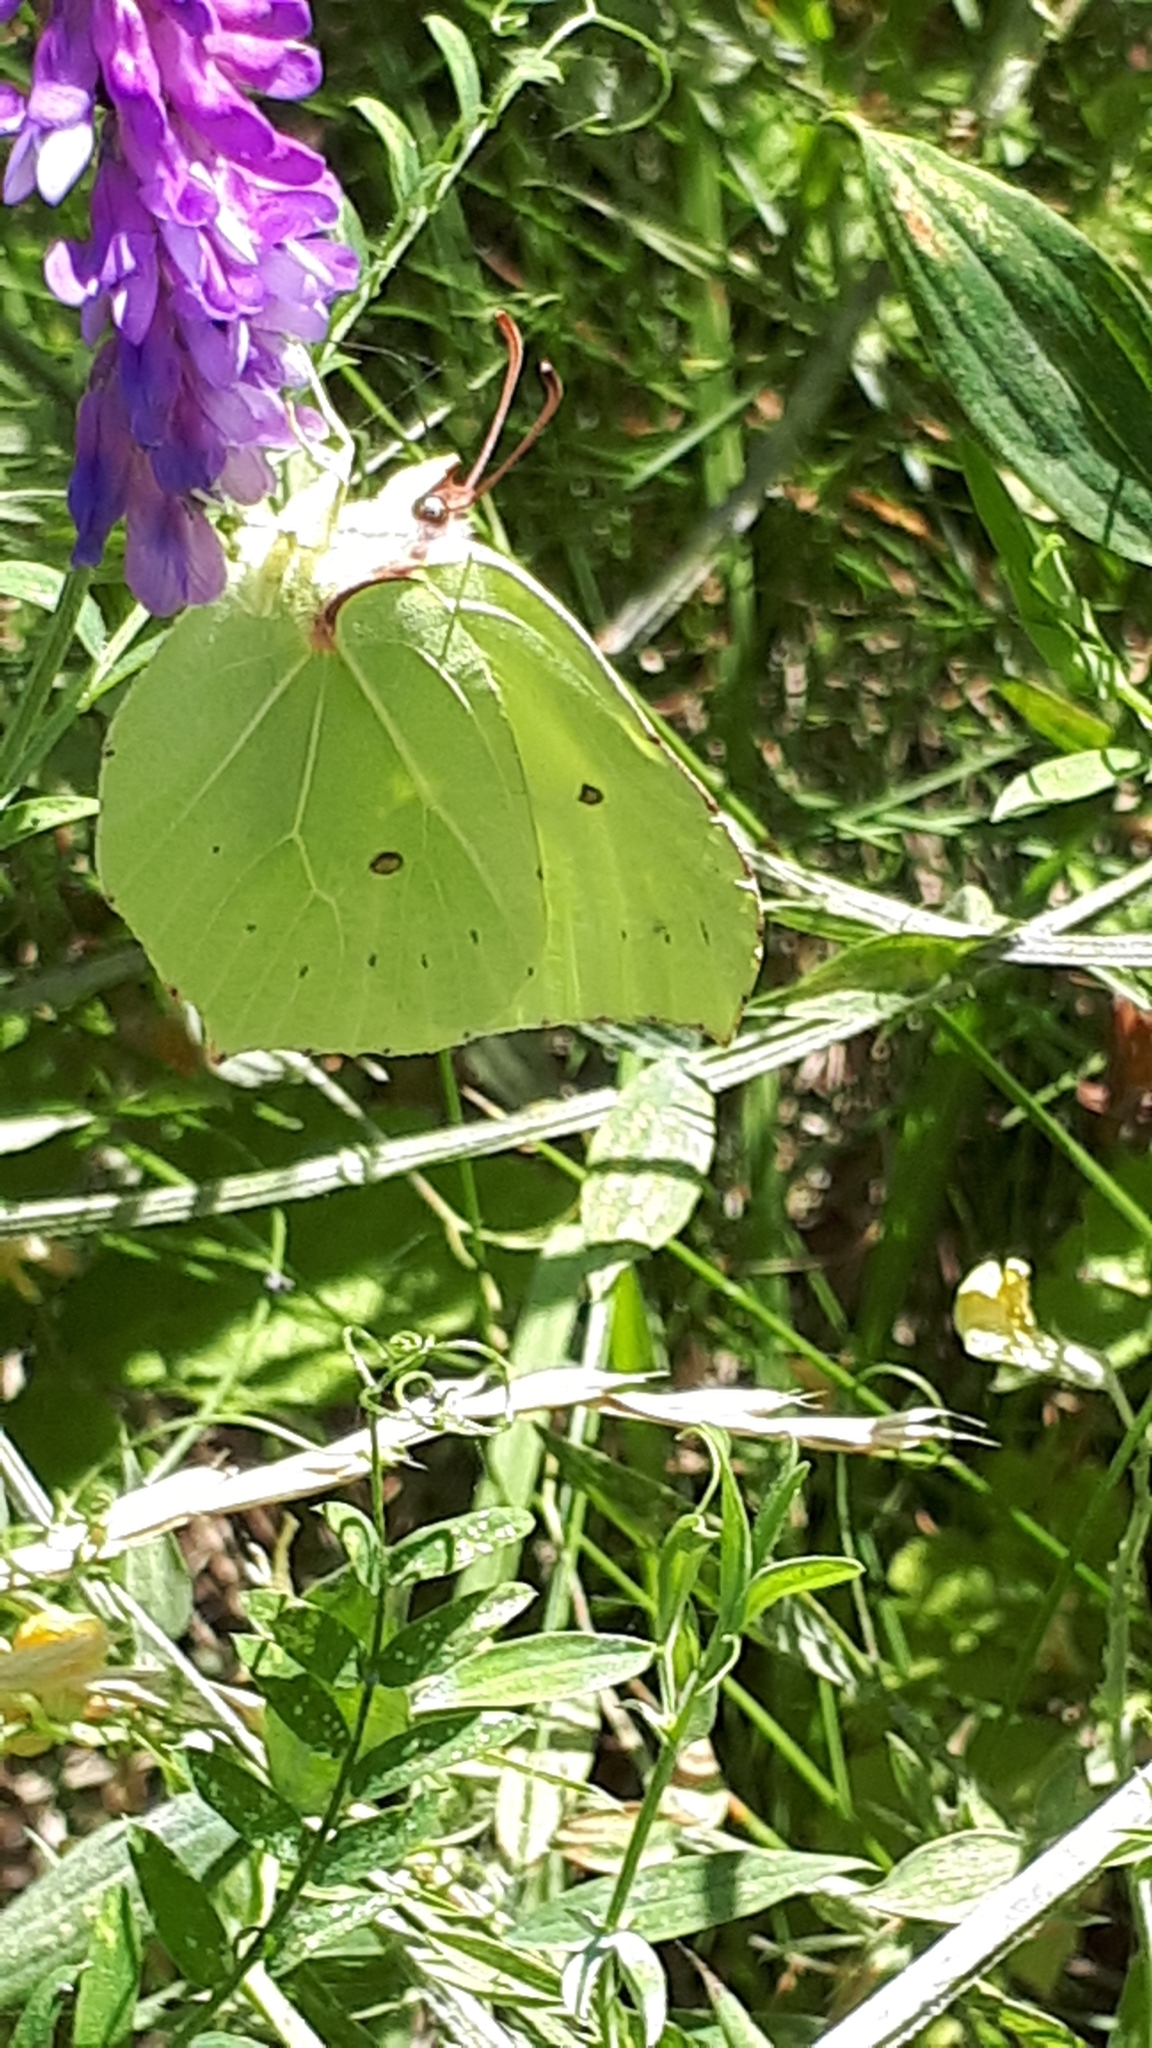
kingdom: Animalia
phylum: Arthropoda
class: Insecta
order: Lepidoptera
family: Pieridae
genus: Gonepteryx
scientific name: Gonepteryx rhamni
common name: Brimstone
